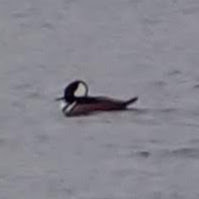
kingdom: Animalia
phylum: Chordata
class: Aves
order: Anseriformes
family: Anatidae
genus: Lophodytes
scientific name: Lophodytes cucullatus
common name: Hooded merganser
